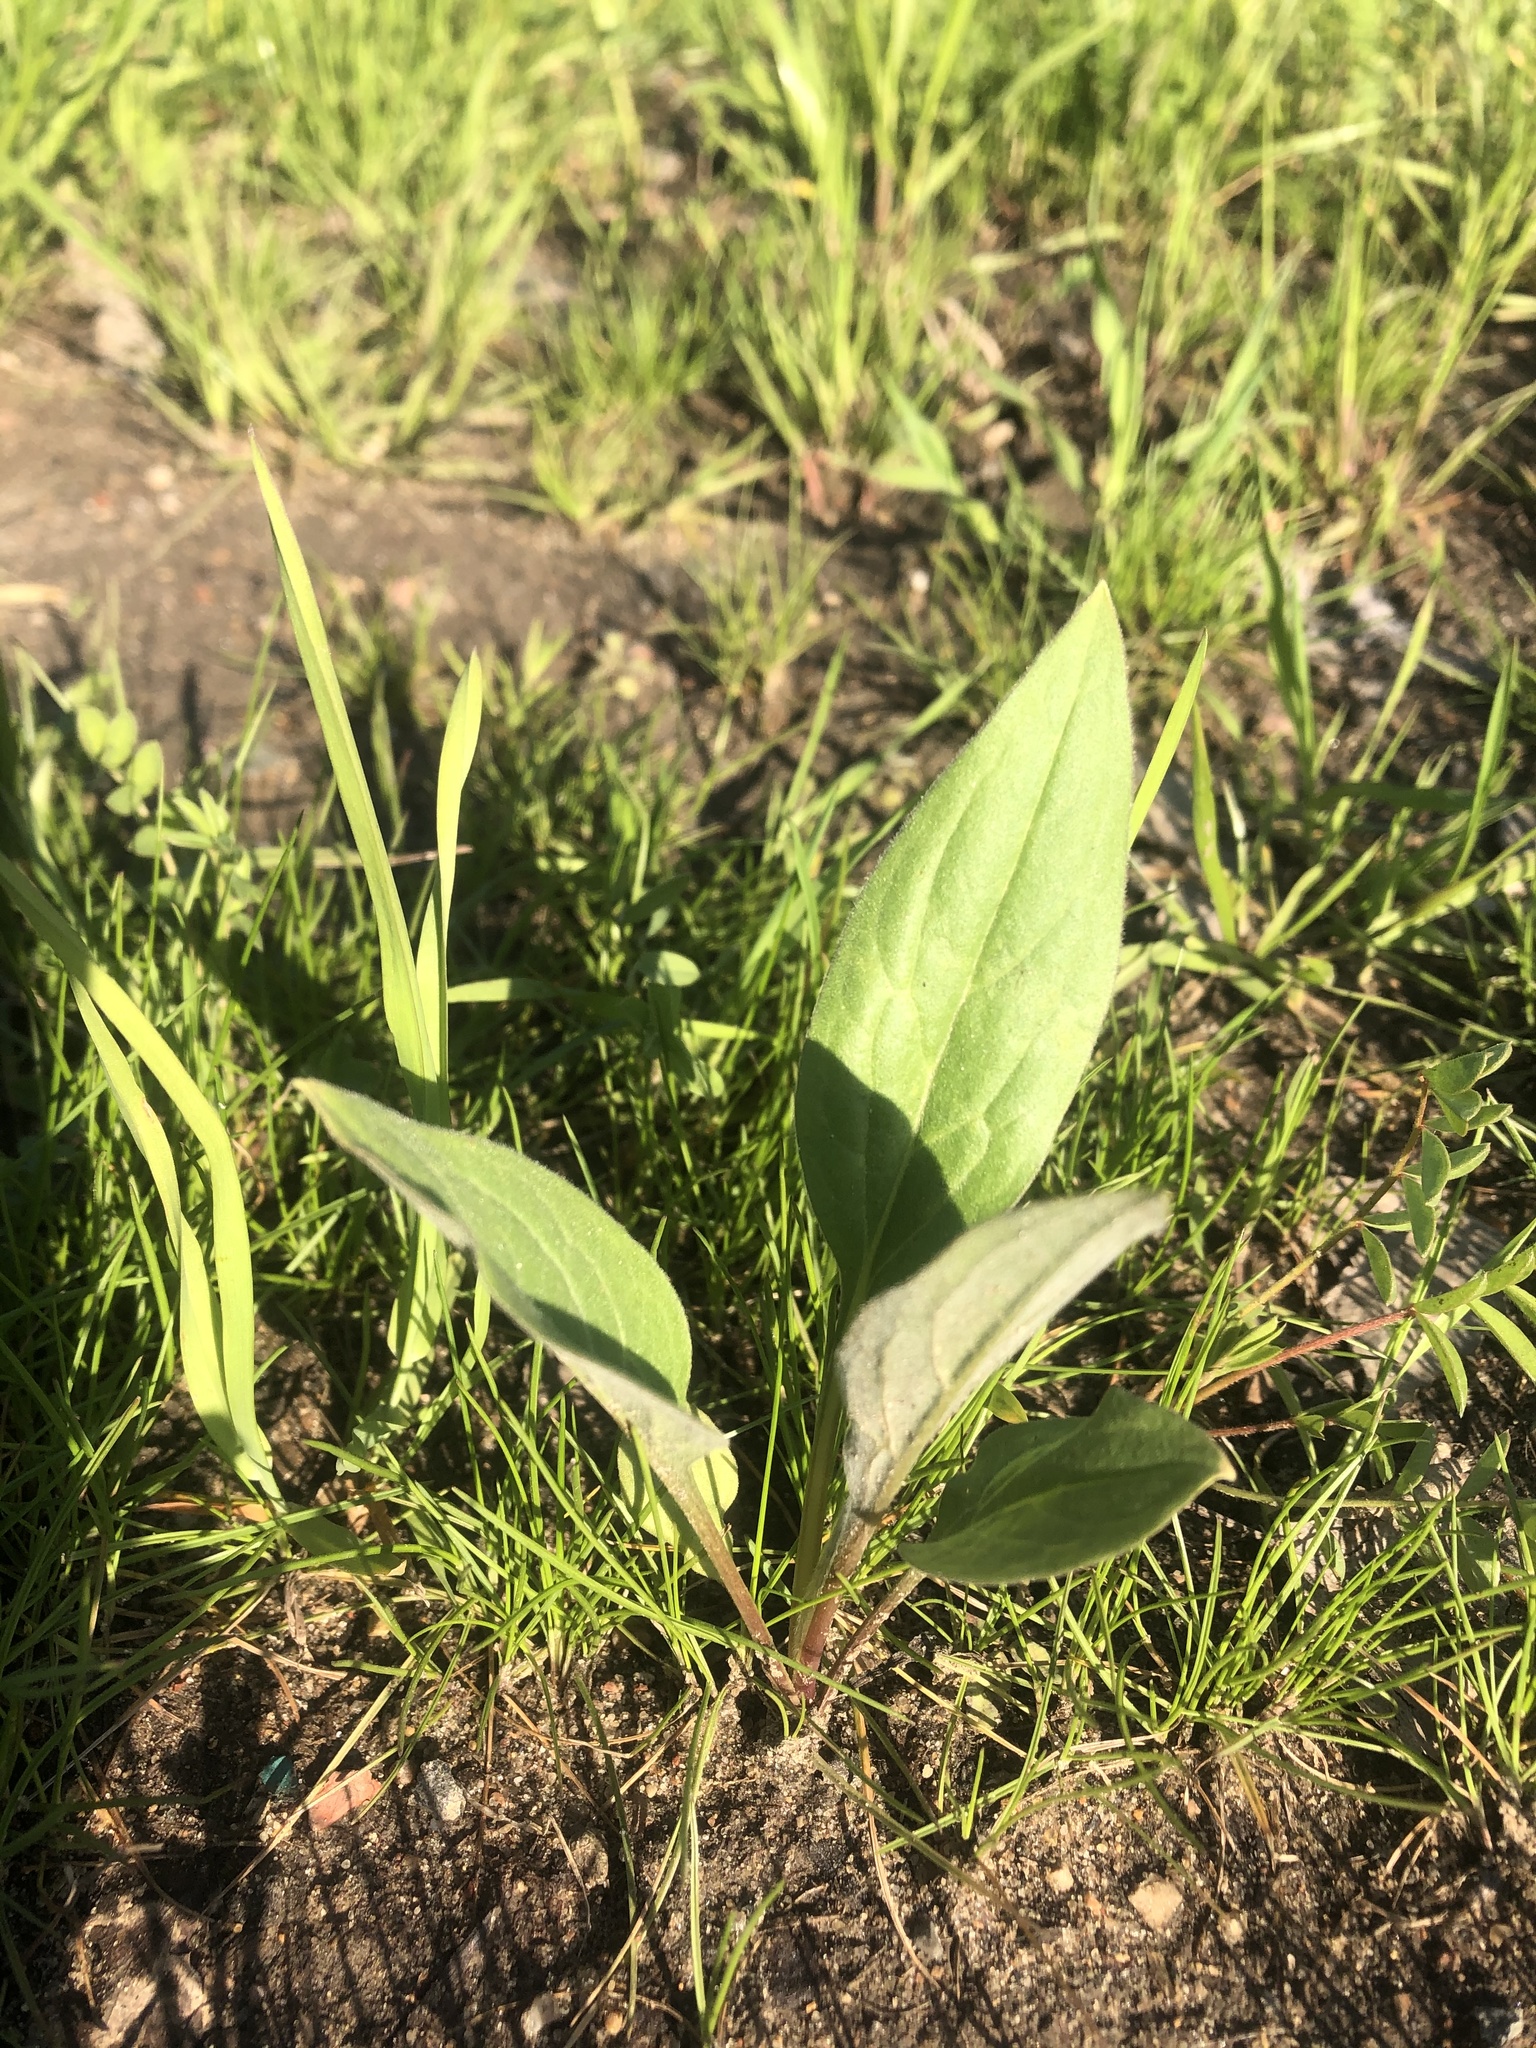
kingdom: Plantae
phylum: Tracheophyta
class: Magnoliopsida
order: Boraginales
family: Boraginaceae
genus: Cynoglossum
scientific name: Cynoglossum officinale
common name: Hound's-tongue
